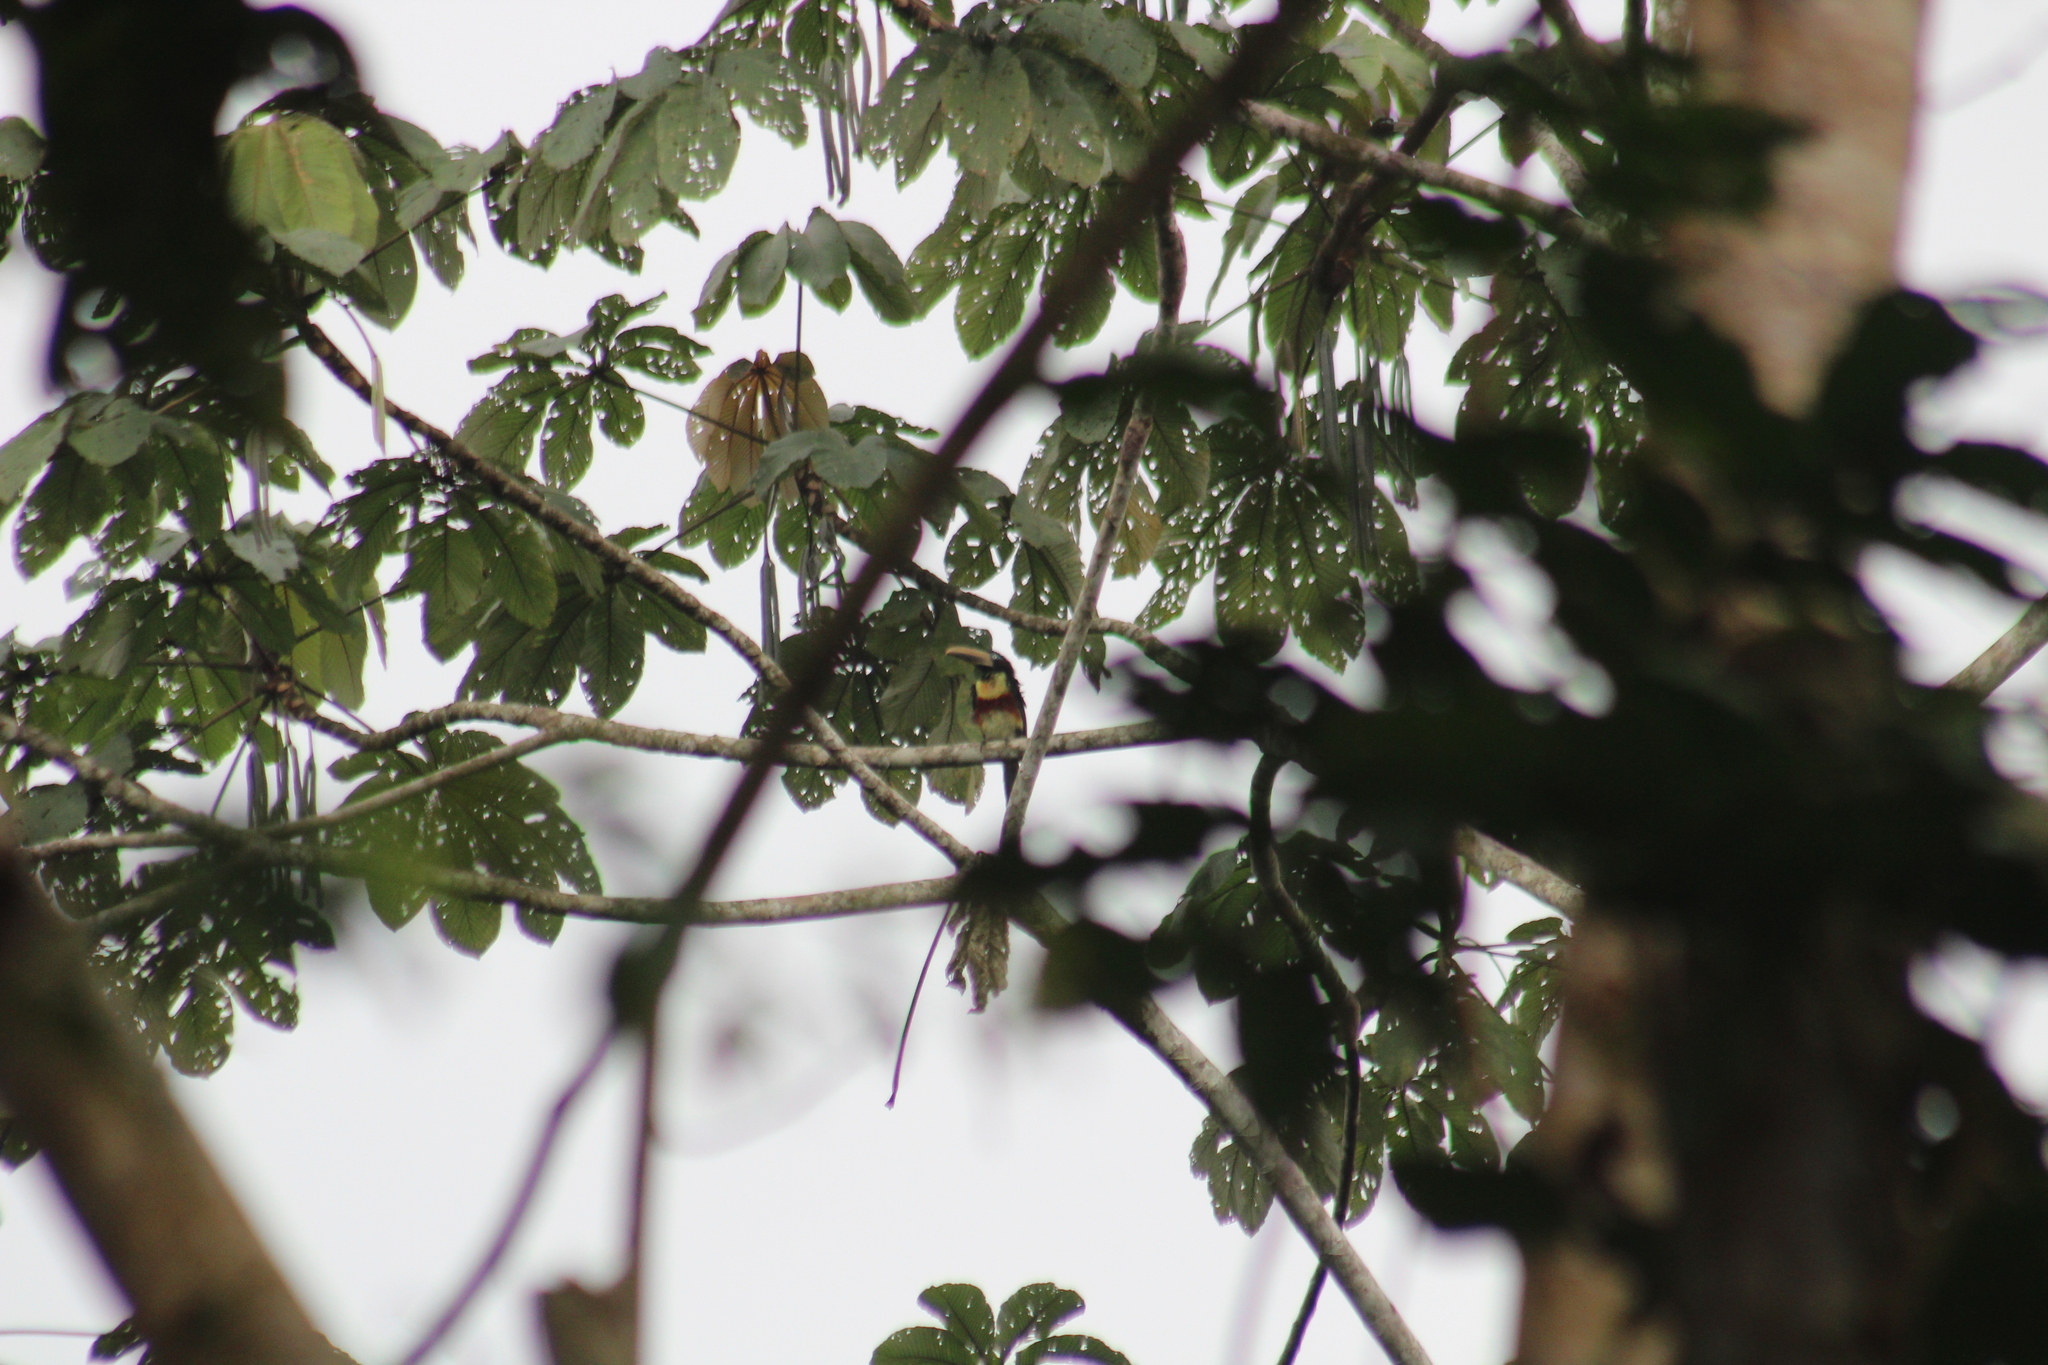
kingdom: Animalia
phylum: Chordata
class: Aves
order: Piciformes
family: Ramphastidae
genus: Pteroglossus
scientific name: Pteroglossus castanotis
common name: Chestnut-eared aracari
